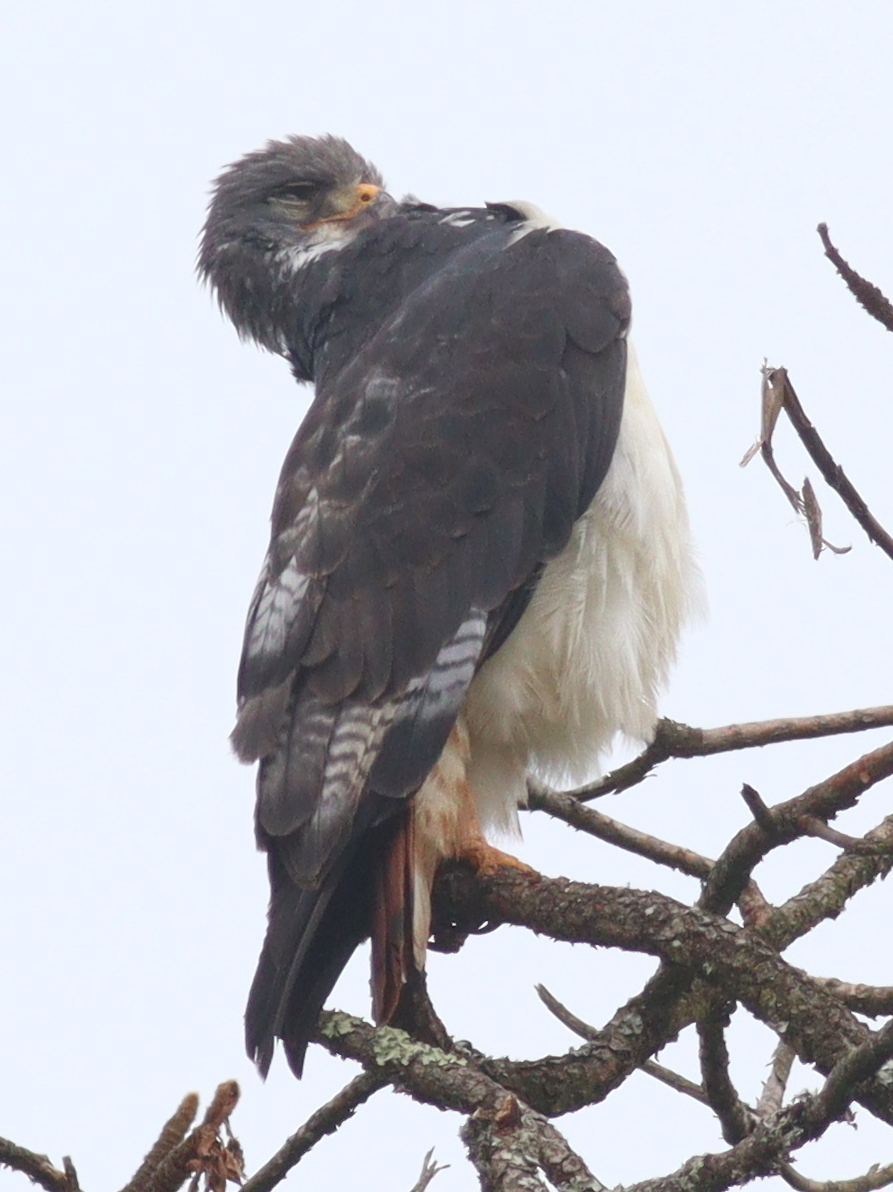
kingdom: Animalia
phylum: Chordata
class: Aves
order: Accipitriformes
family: Accipitridae
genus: Buteo
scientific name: Buteo augur
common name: Augur buzzard
